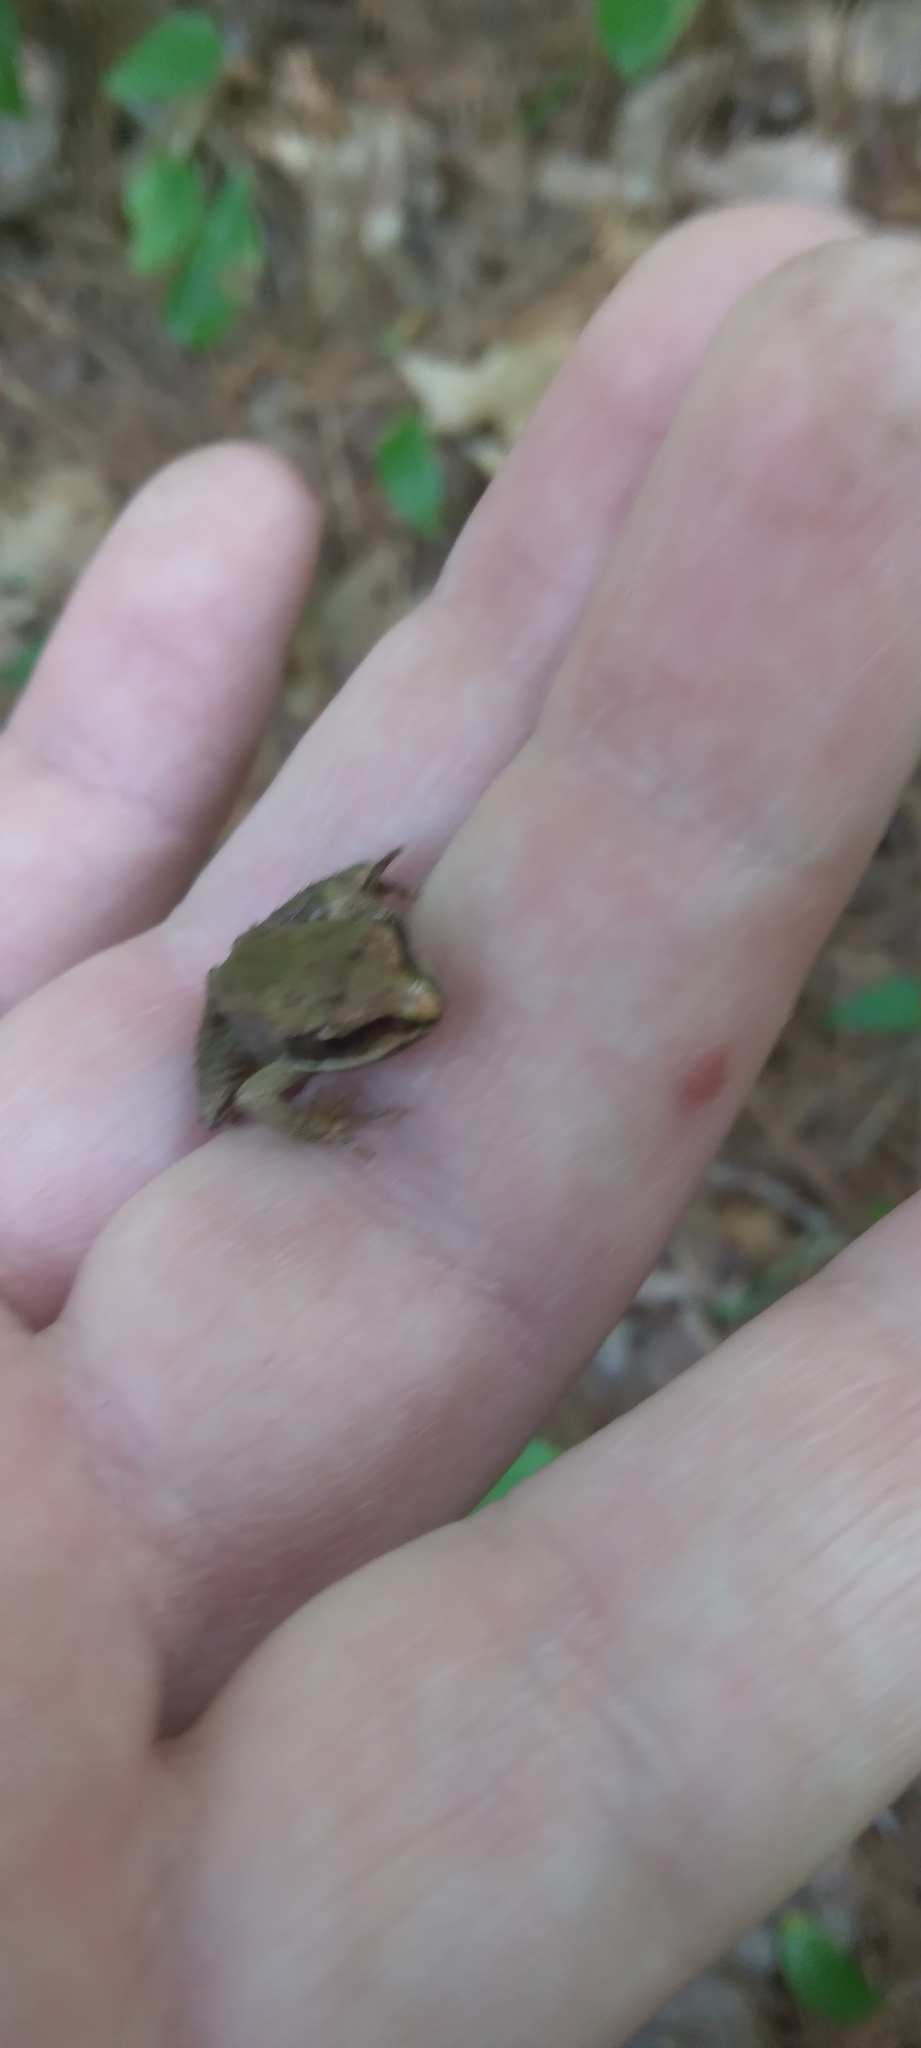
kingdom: Animalia
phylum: Chordata
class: Amphibia
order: Anura
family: Ranidae
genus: Lithobates
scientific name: Lithobates sylvaticus
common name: Wood frog
